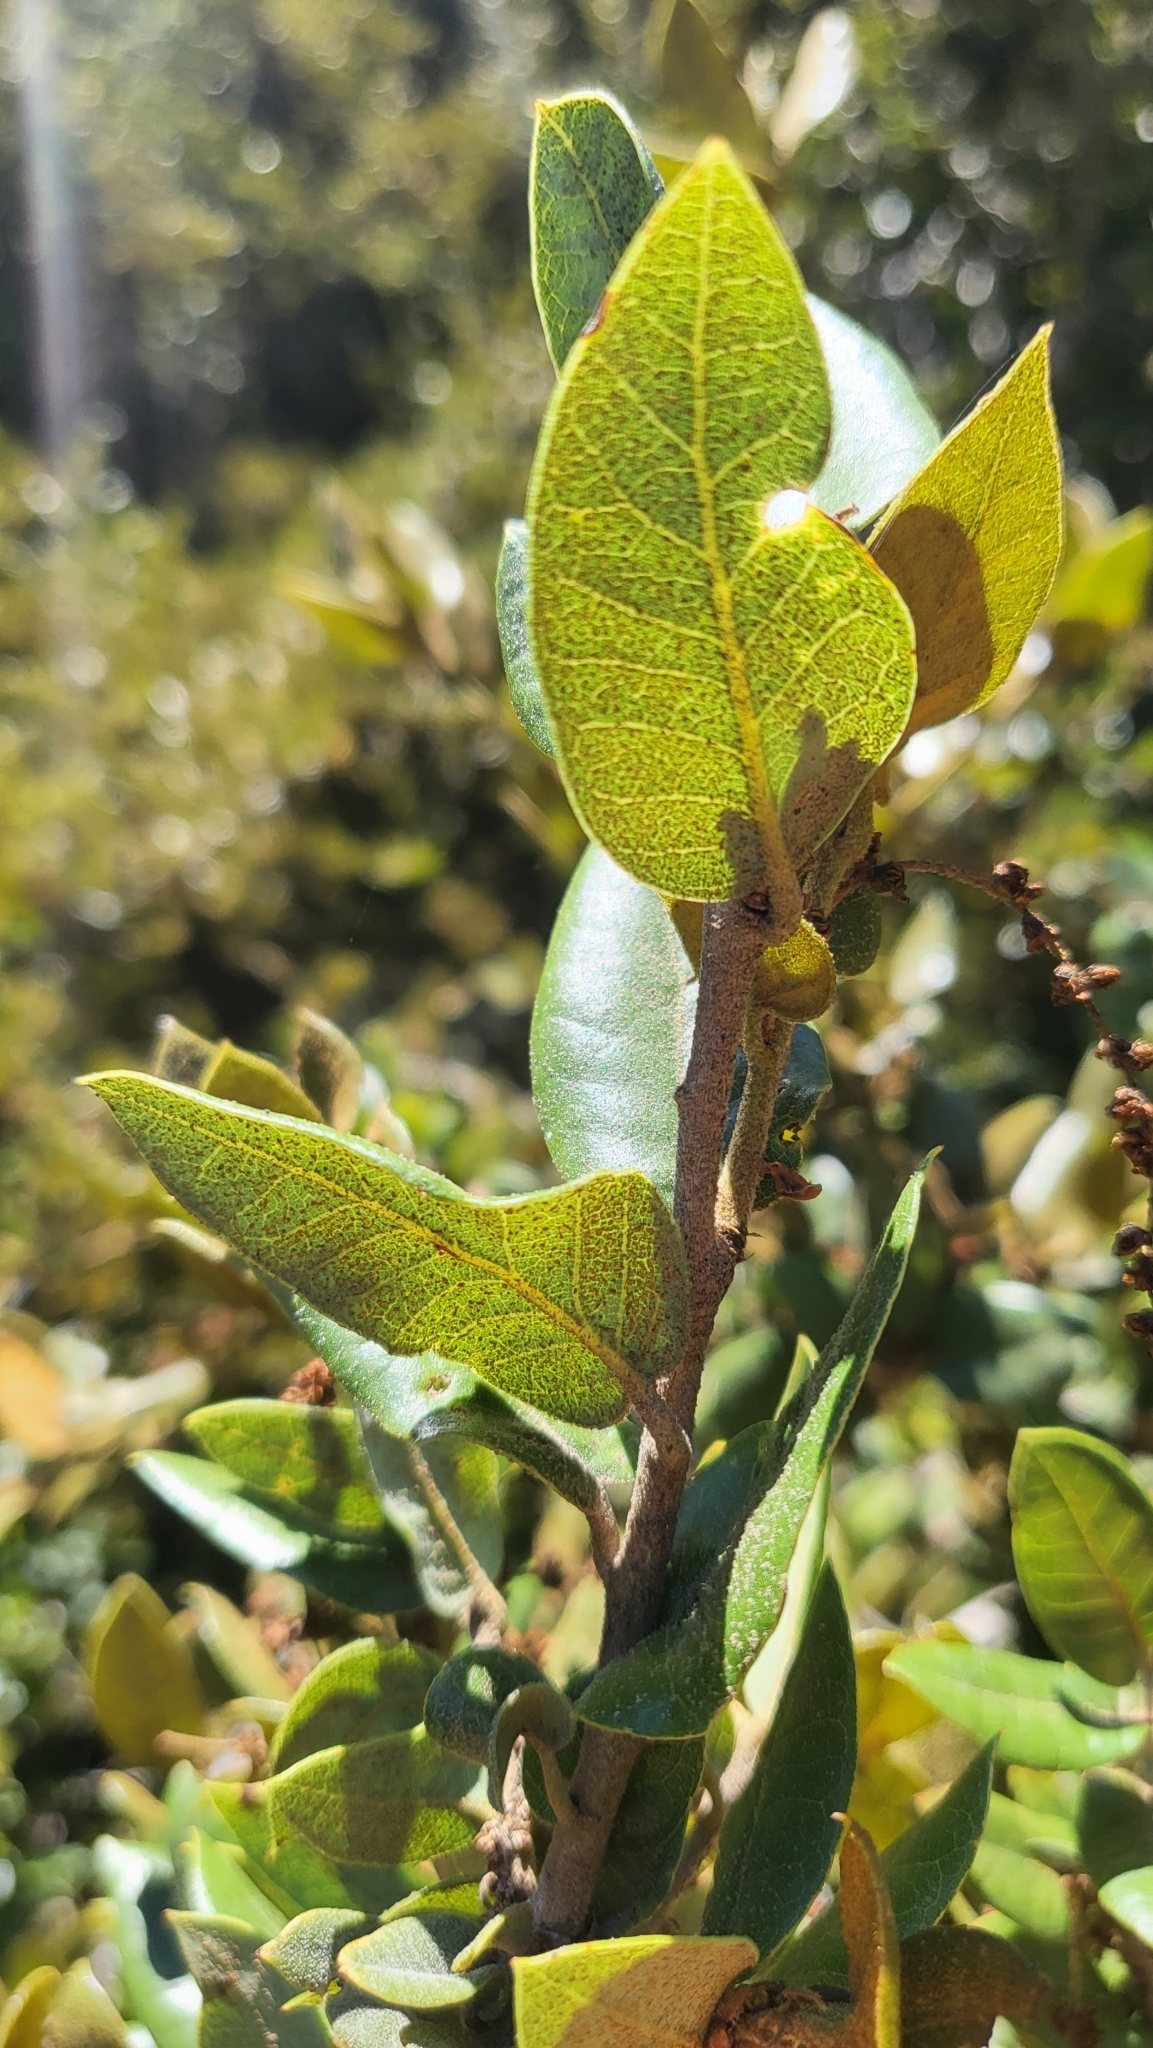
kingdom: Plantae
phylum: Tracheophyta
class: Magnoliopsida
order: Fagales
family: Fagaceae
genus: Quercus
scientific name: Quercus chrysolepis
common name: Canyon live oak
